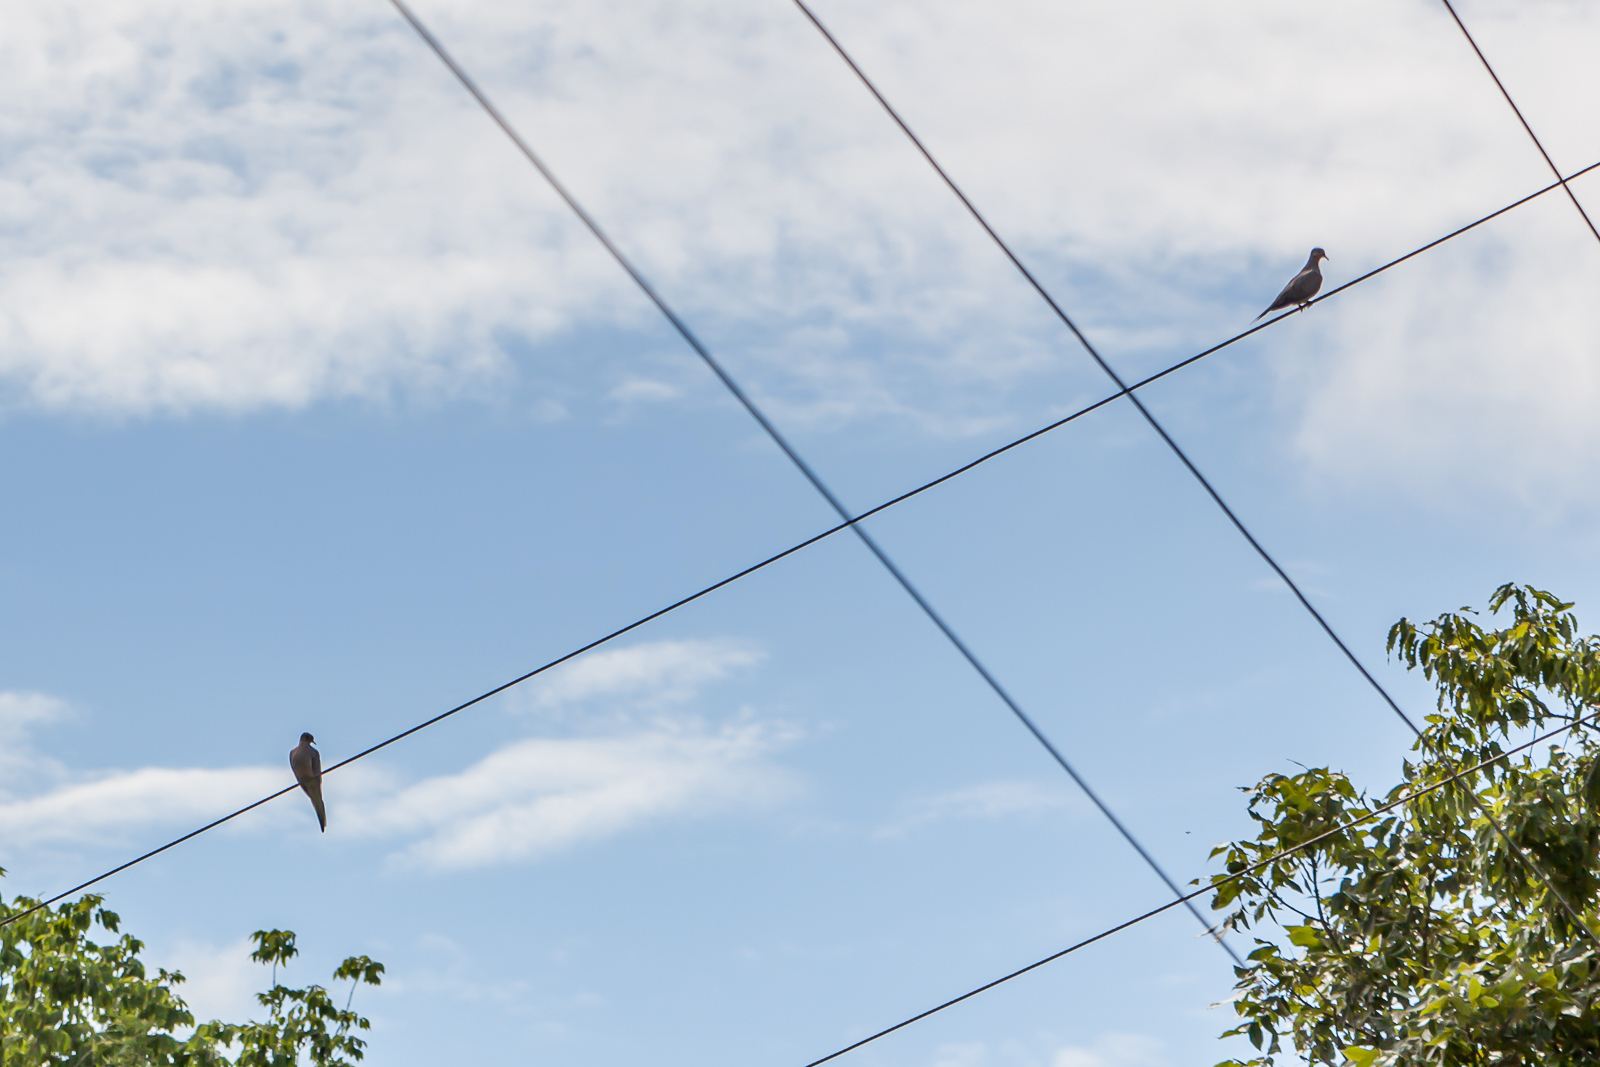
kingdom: Animalia
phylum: Chordata
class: Aves
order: Columbiformes
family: Columbidae
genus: Zenaida
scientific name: Zenaida macroura
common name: Mourning dove
